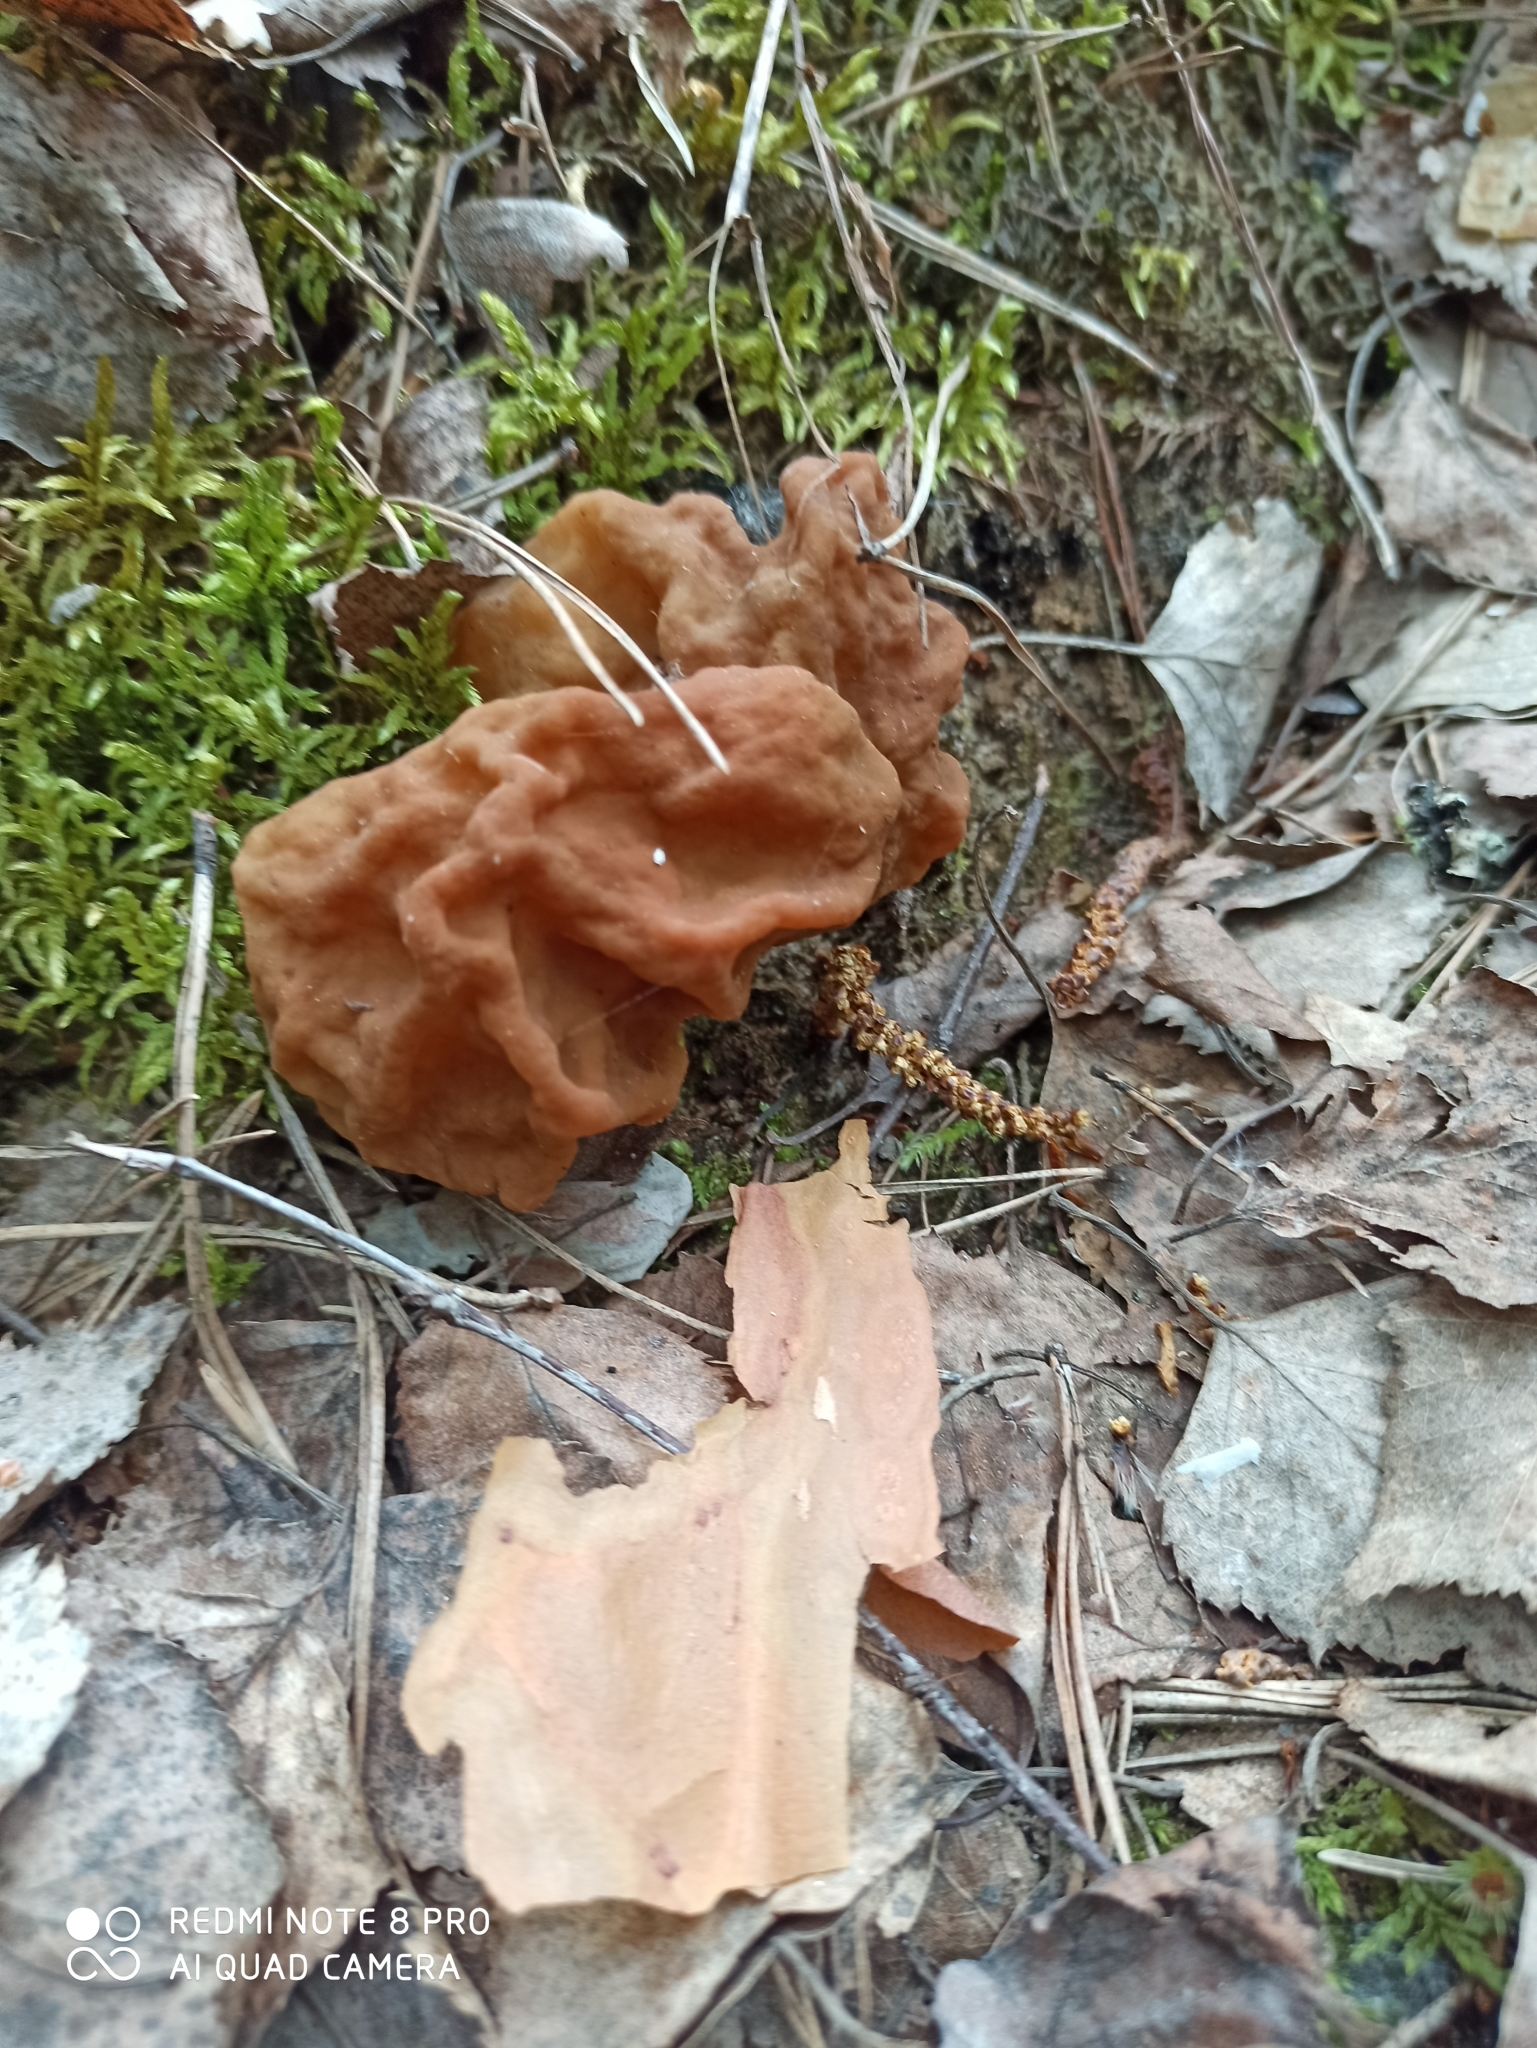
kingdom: Fungi
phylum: Ascomycota
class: Pezizomycetes
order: Pezizales
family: Discinaceae
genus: Gyromitra
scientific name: Gyromitra gigas
